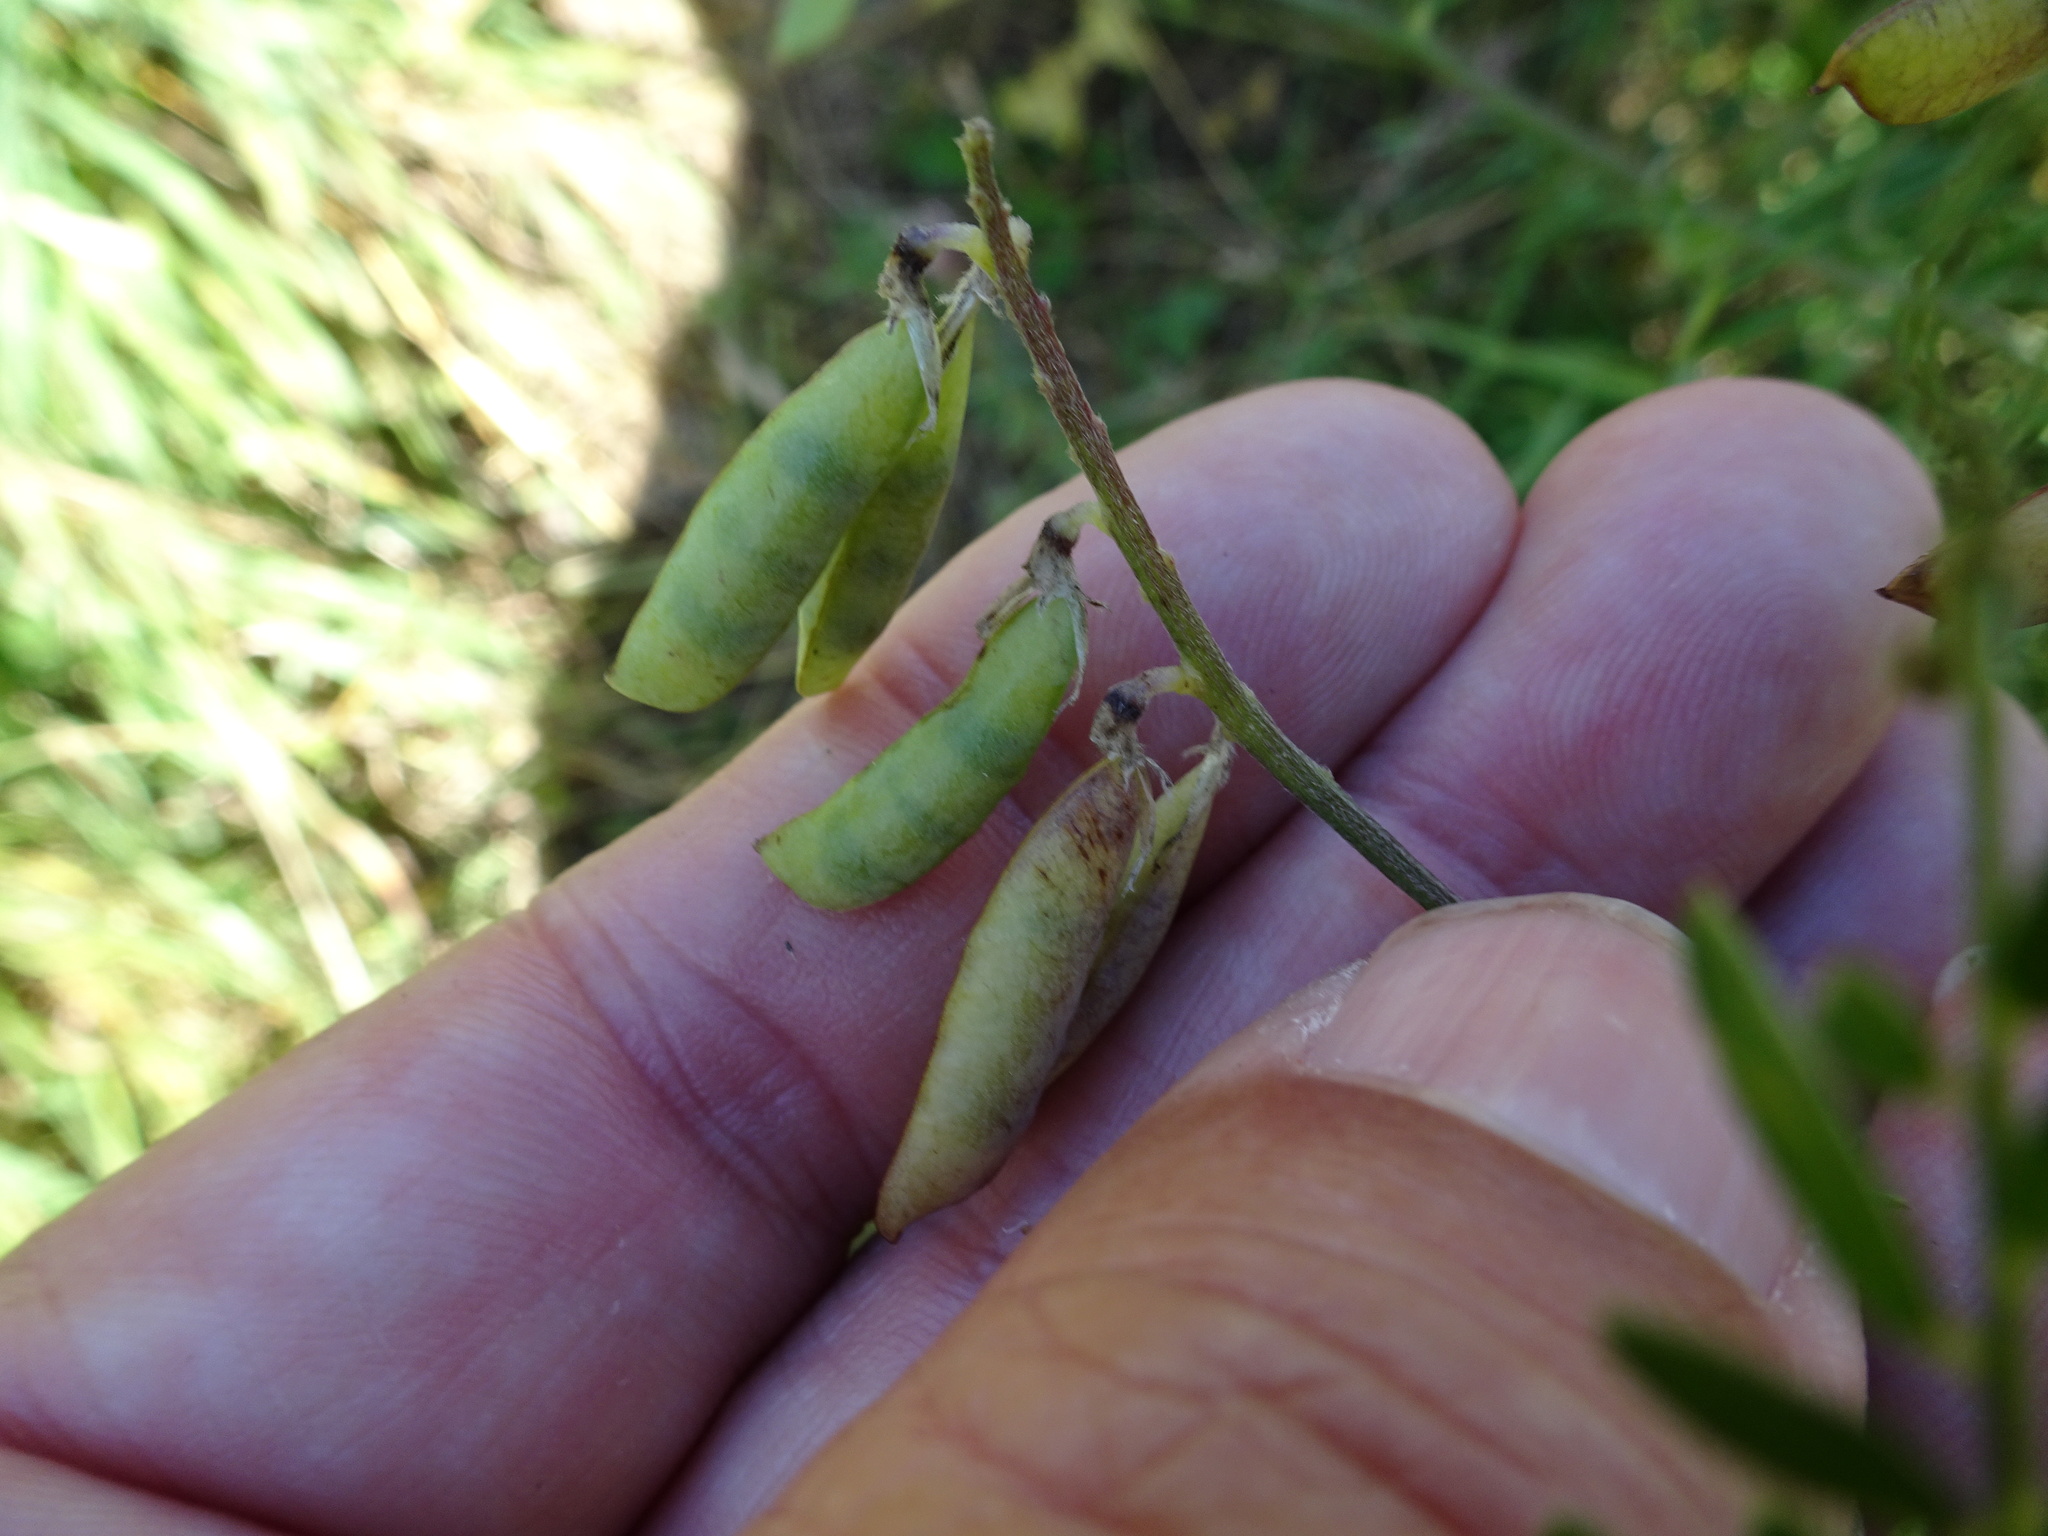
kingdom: Plantae
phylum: Tracheophyta
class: Magnoliopsida
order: Fabales
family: Fabaceae
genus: Vicia
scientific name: Vicia cracca
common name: Bird vetch
